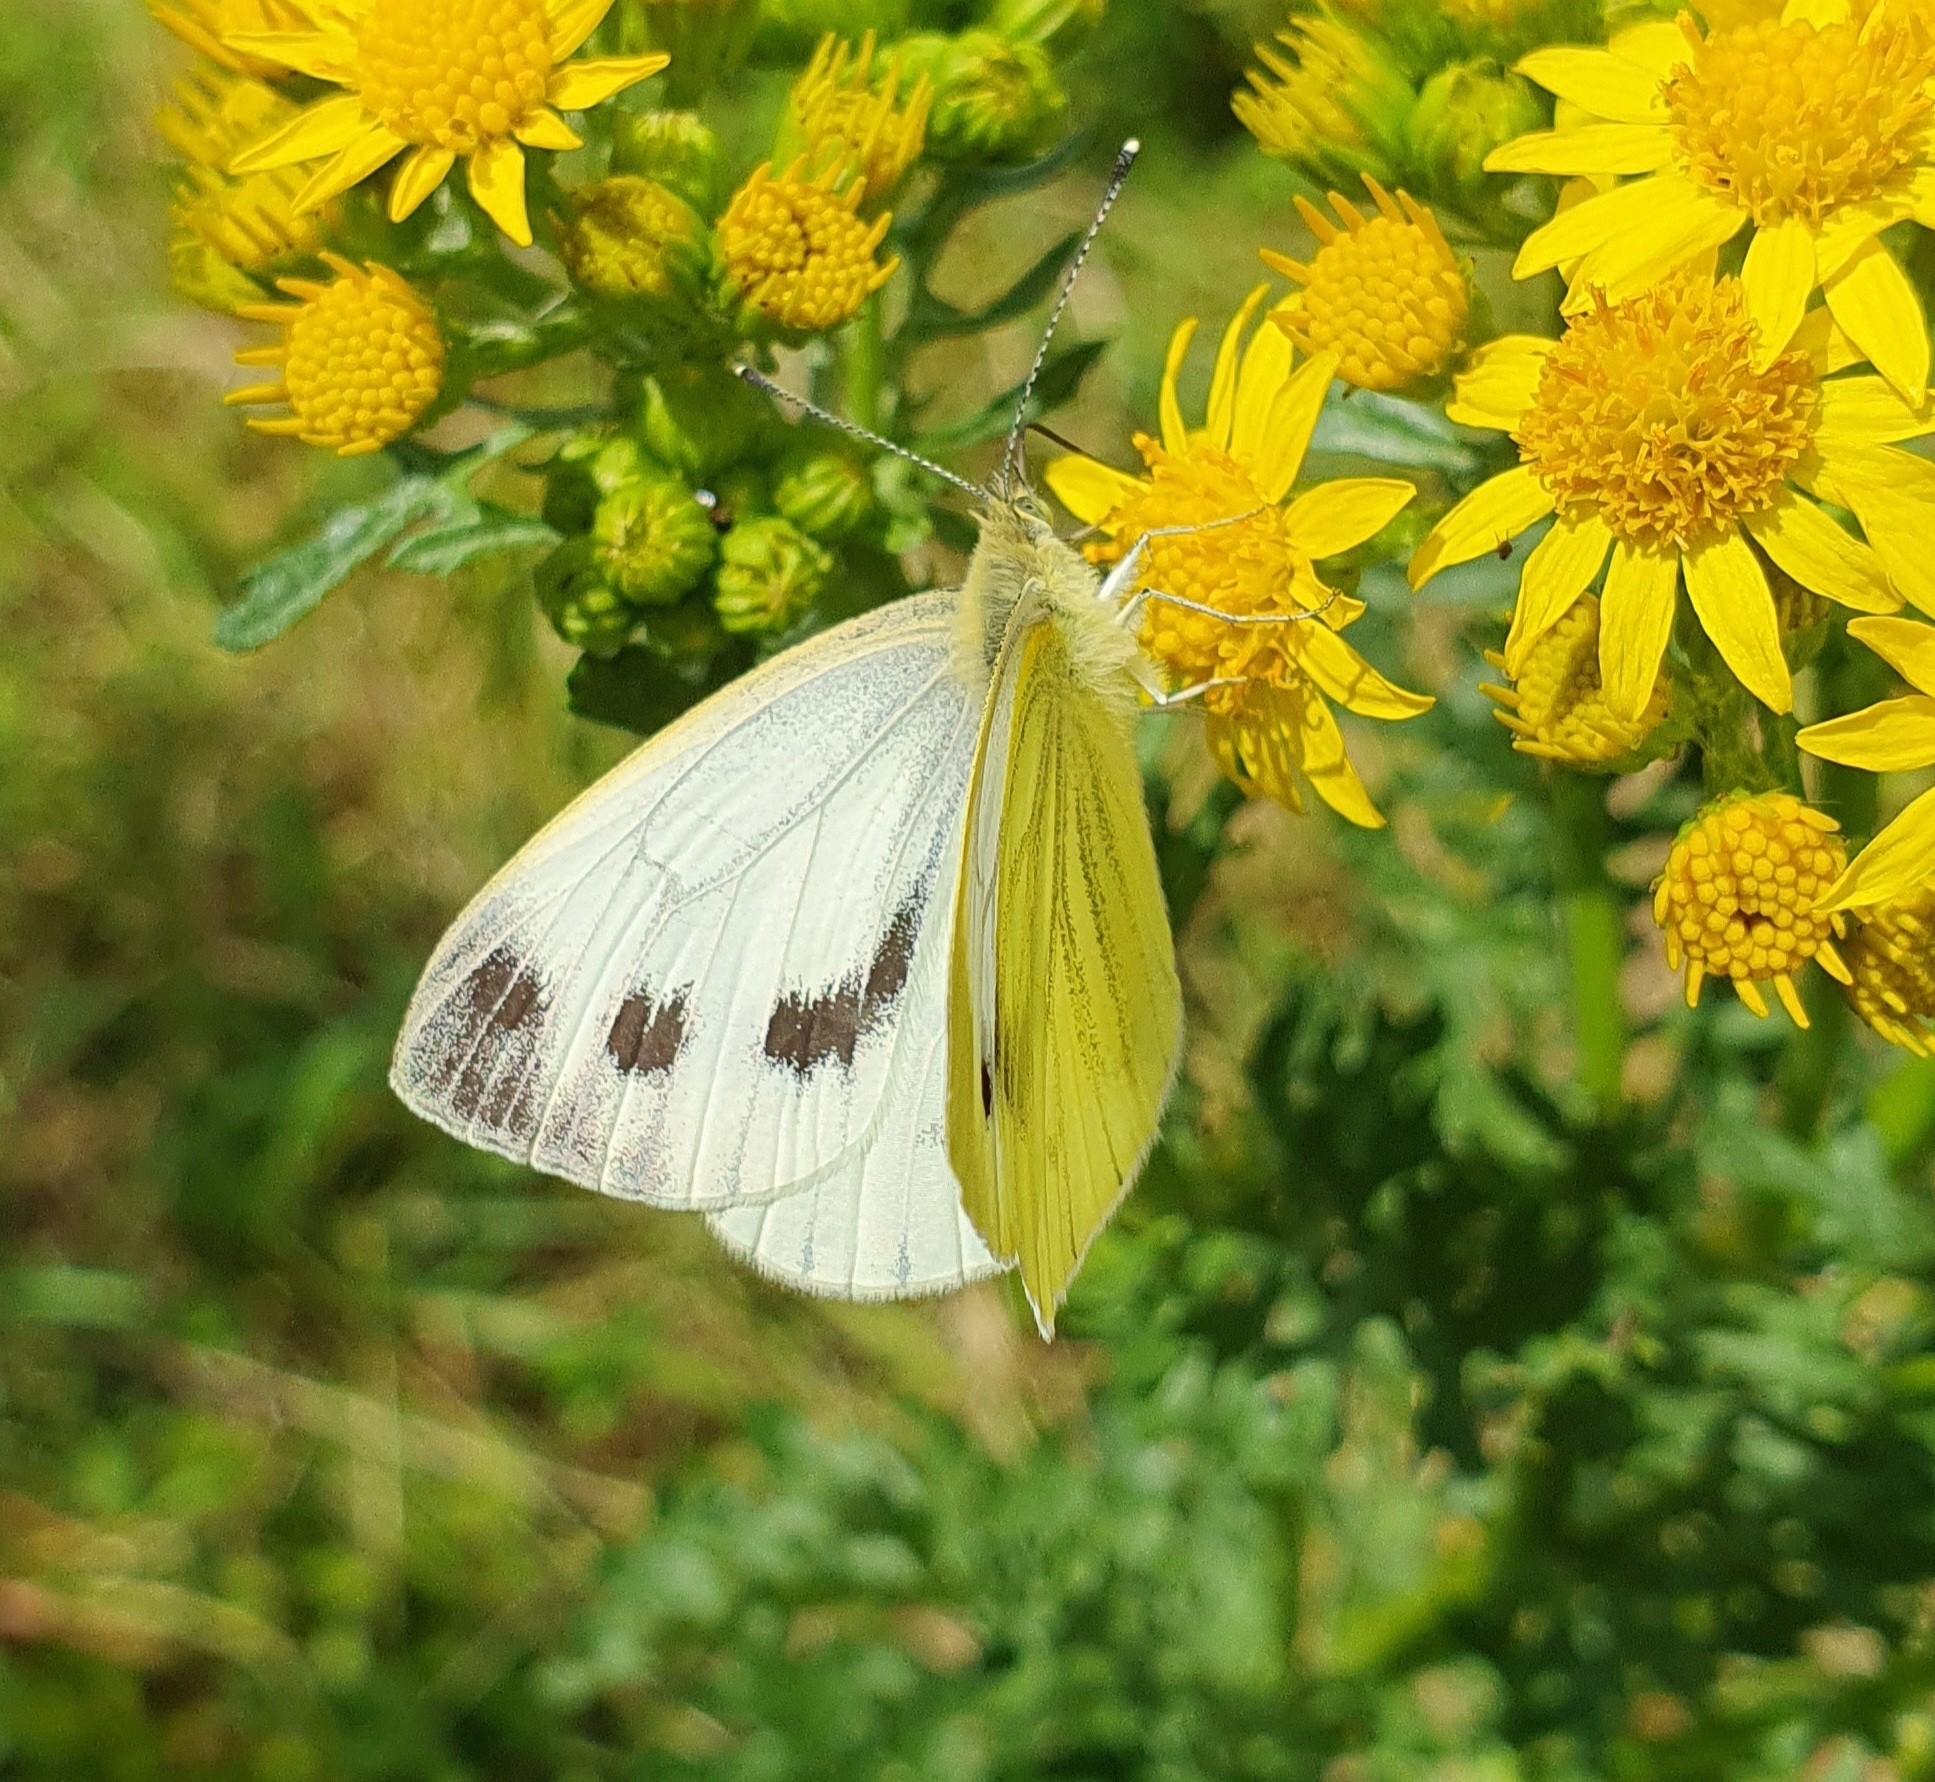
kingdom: Animalia
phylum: Arthropoda
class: Insecta
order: Lepidoptera
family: Pieridae
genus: Pieris
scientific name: Pieris napi
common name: Green-veined white
